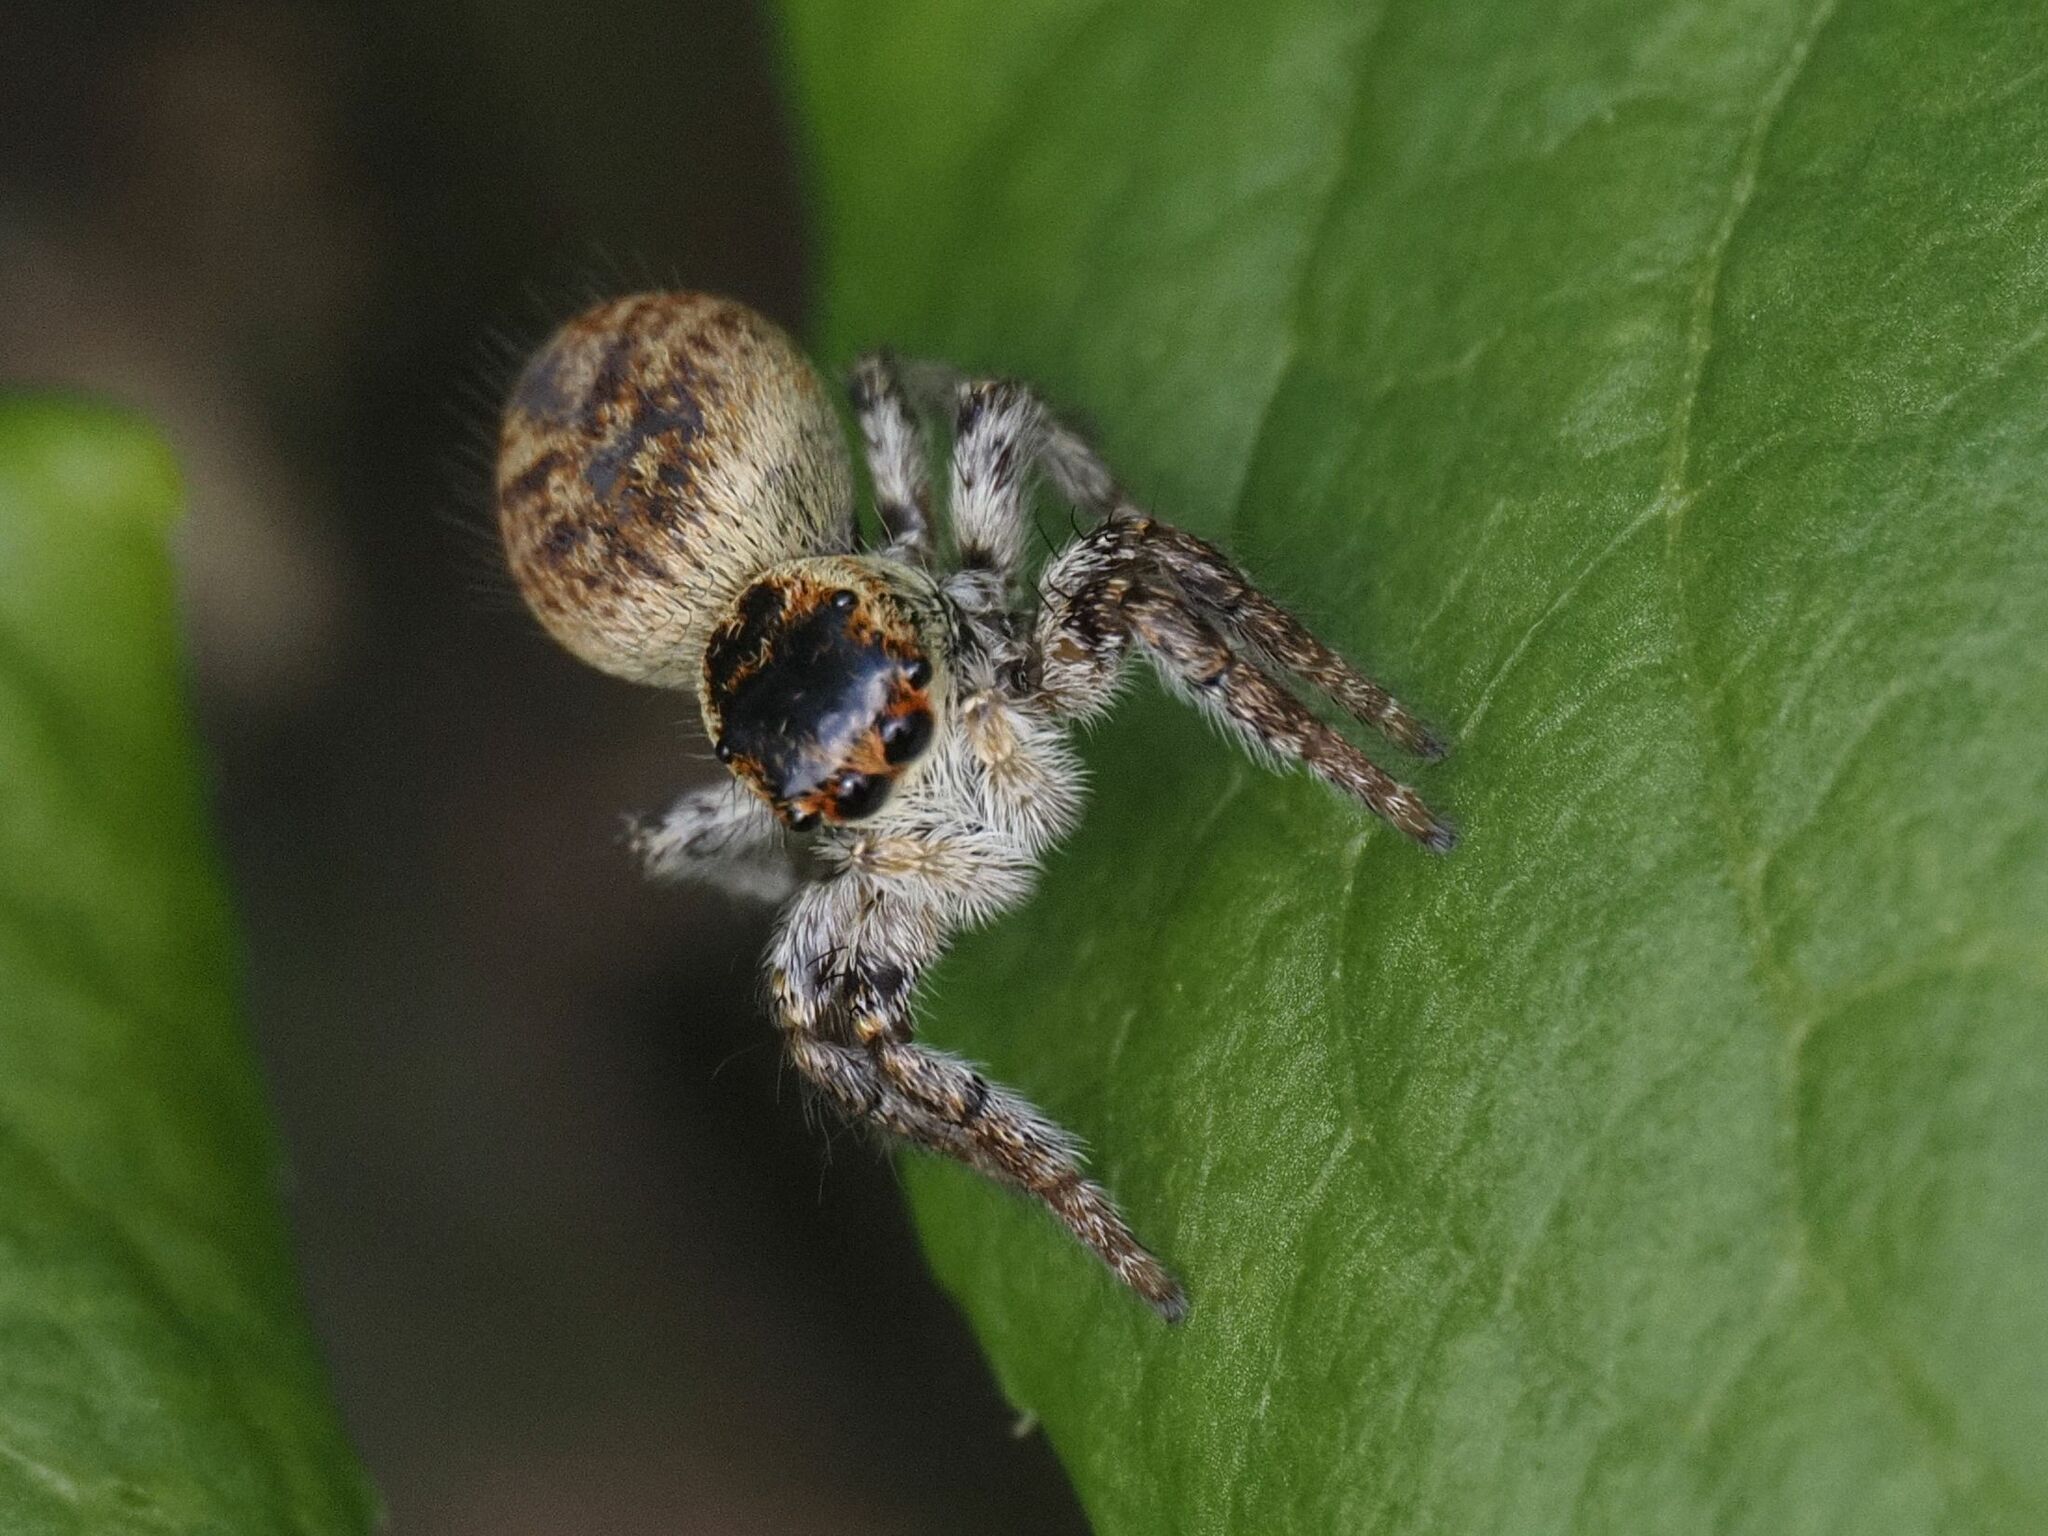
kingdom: Animalia
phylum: Arthropoda
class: Arachnida
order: Araneae
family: Salticidae
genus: Carrhotus
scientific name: Carrhotus xanthogramma
